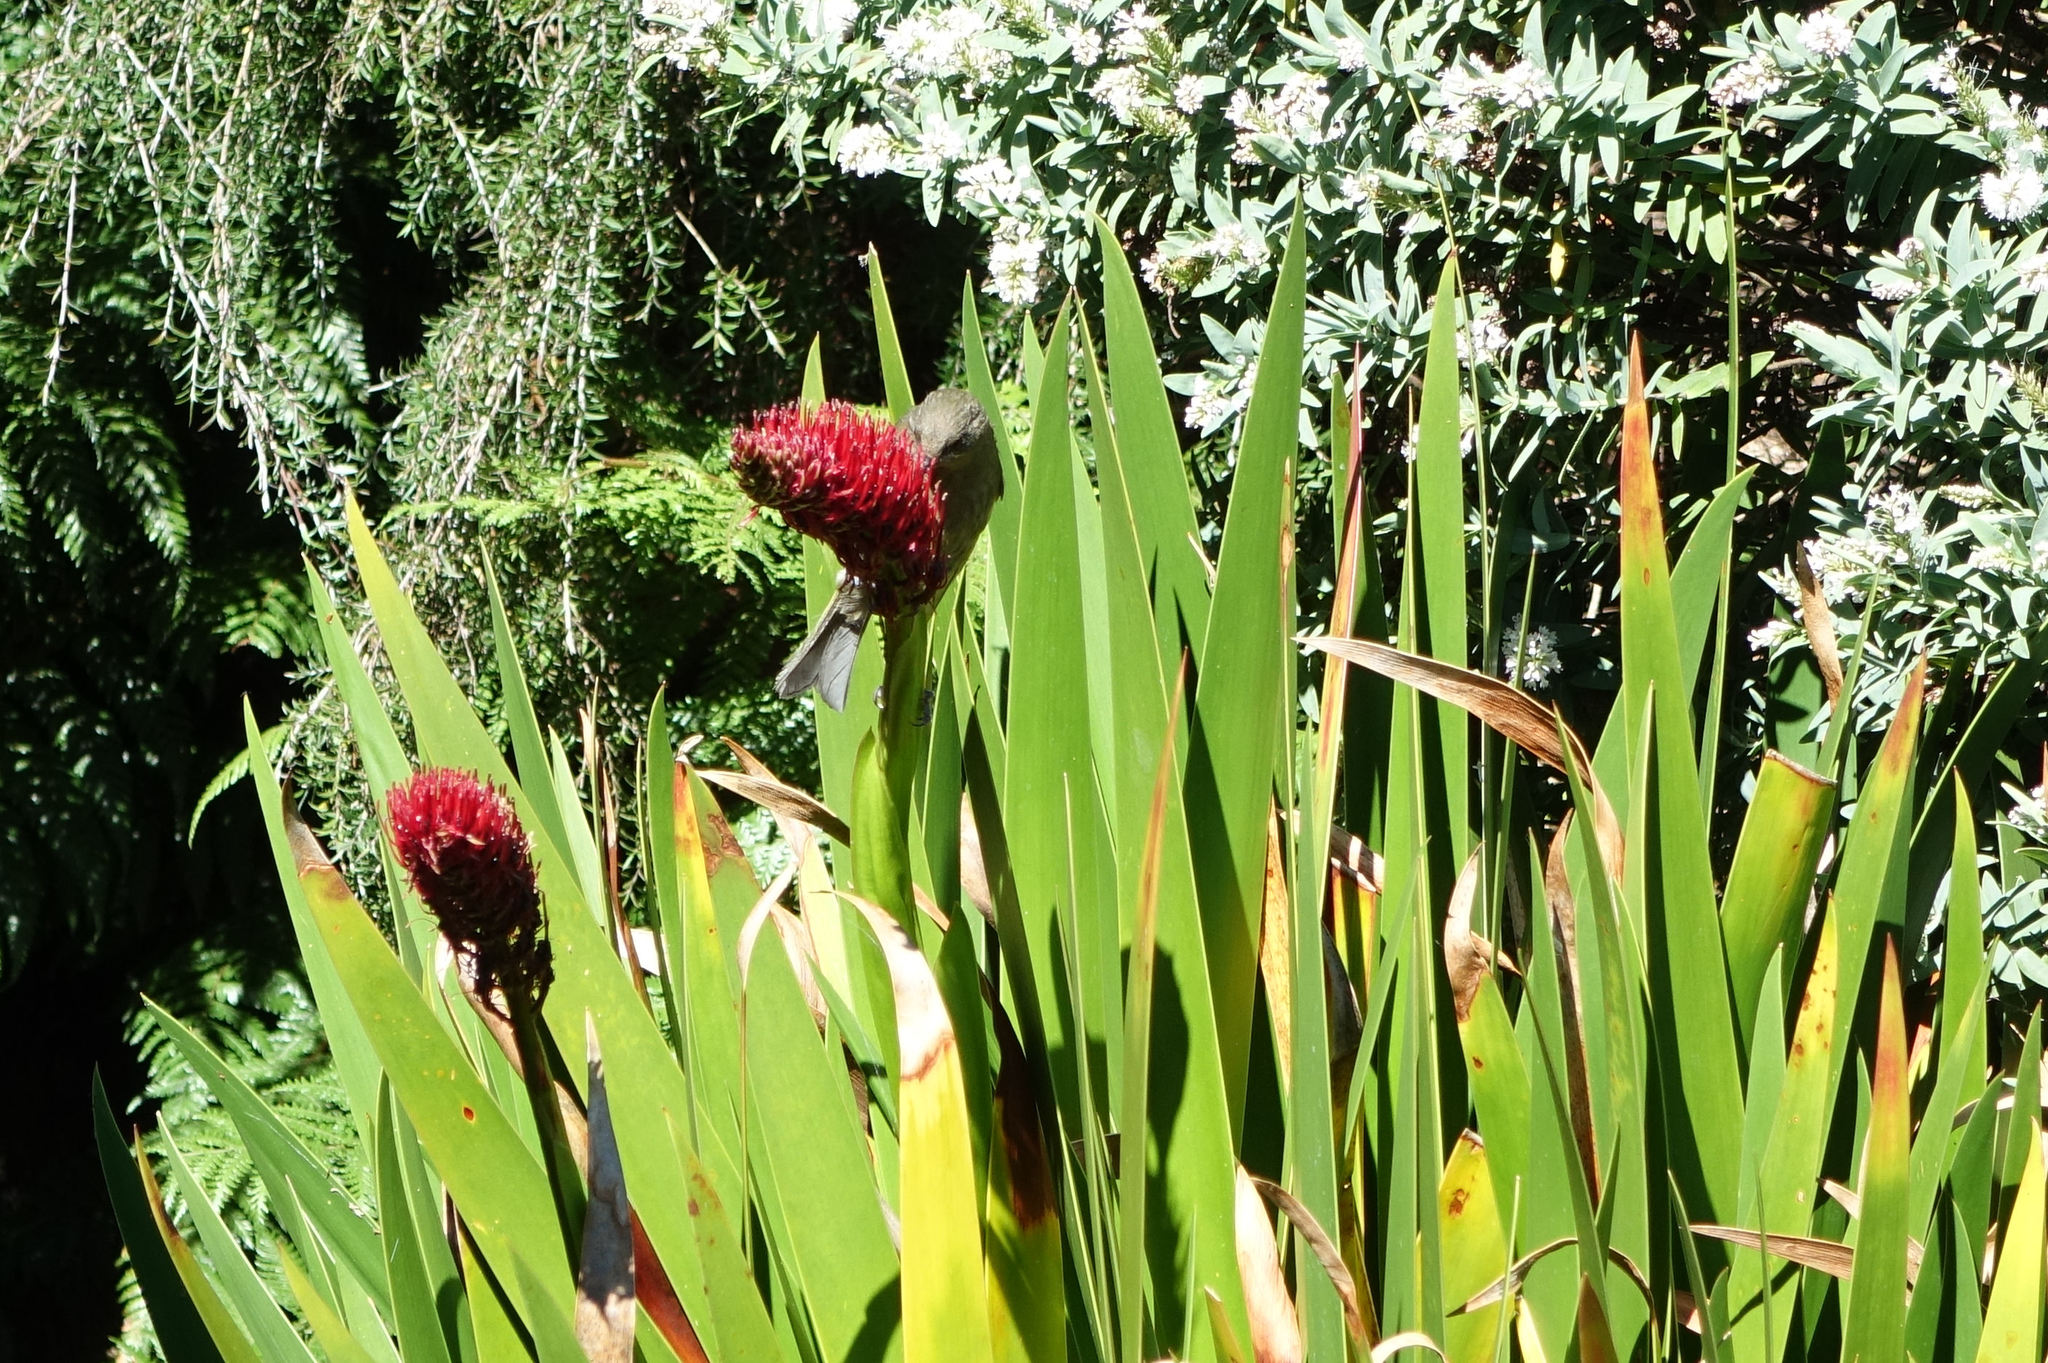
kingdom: Animalia
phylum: Chordata
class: Aves
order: Passeriformes
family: Meliphagidae
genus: Anthornis
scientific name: Anthornis melanura
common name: New zealand bellbird
